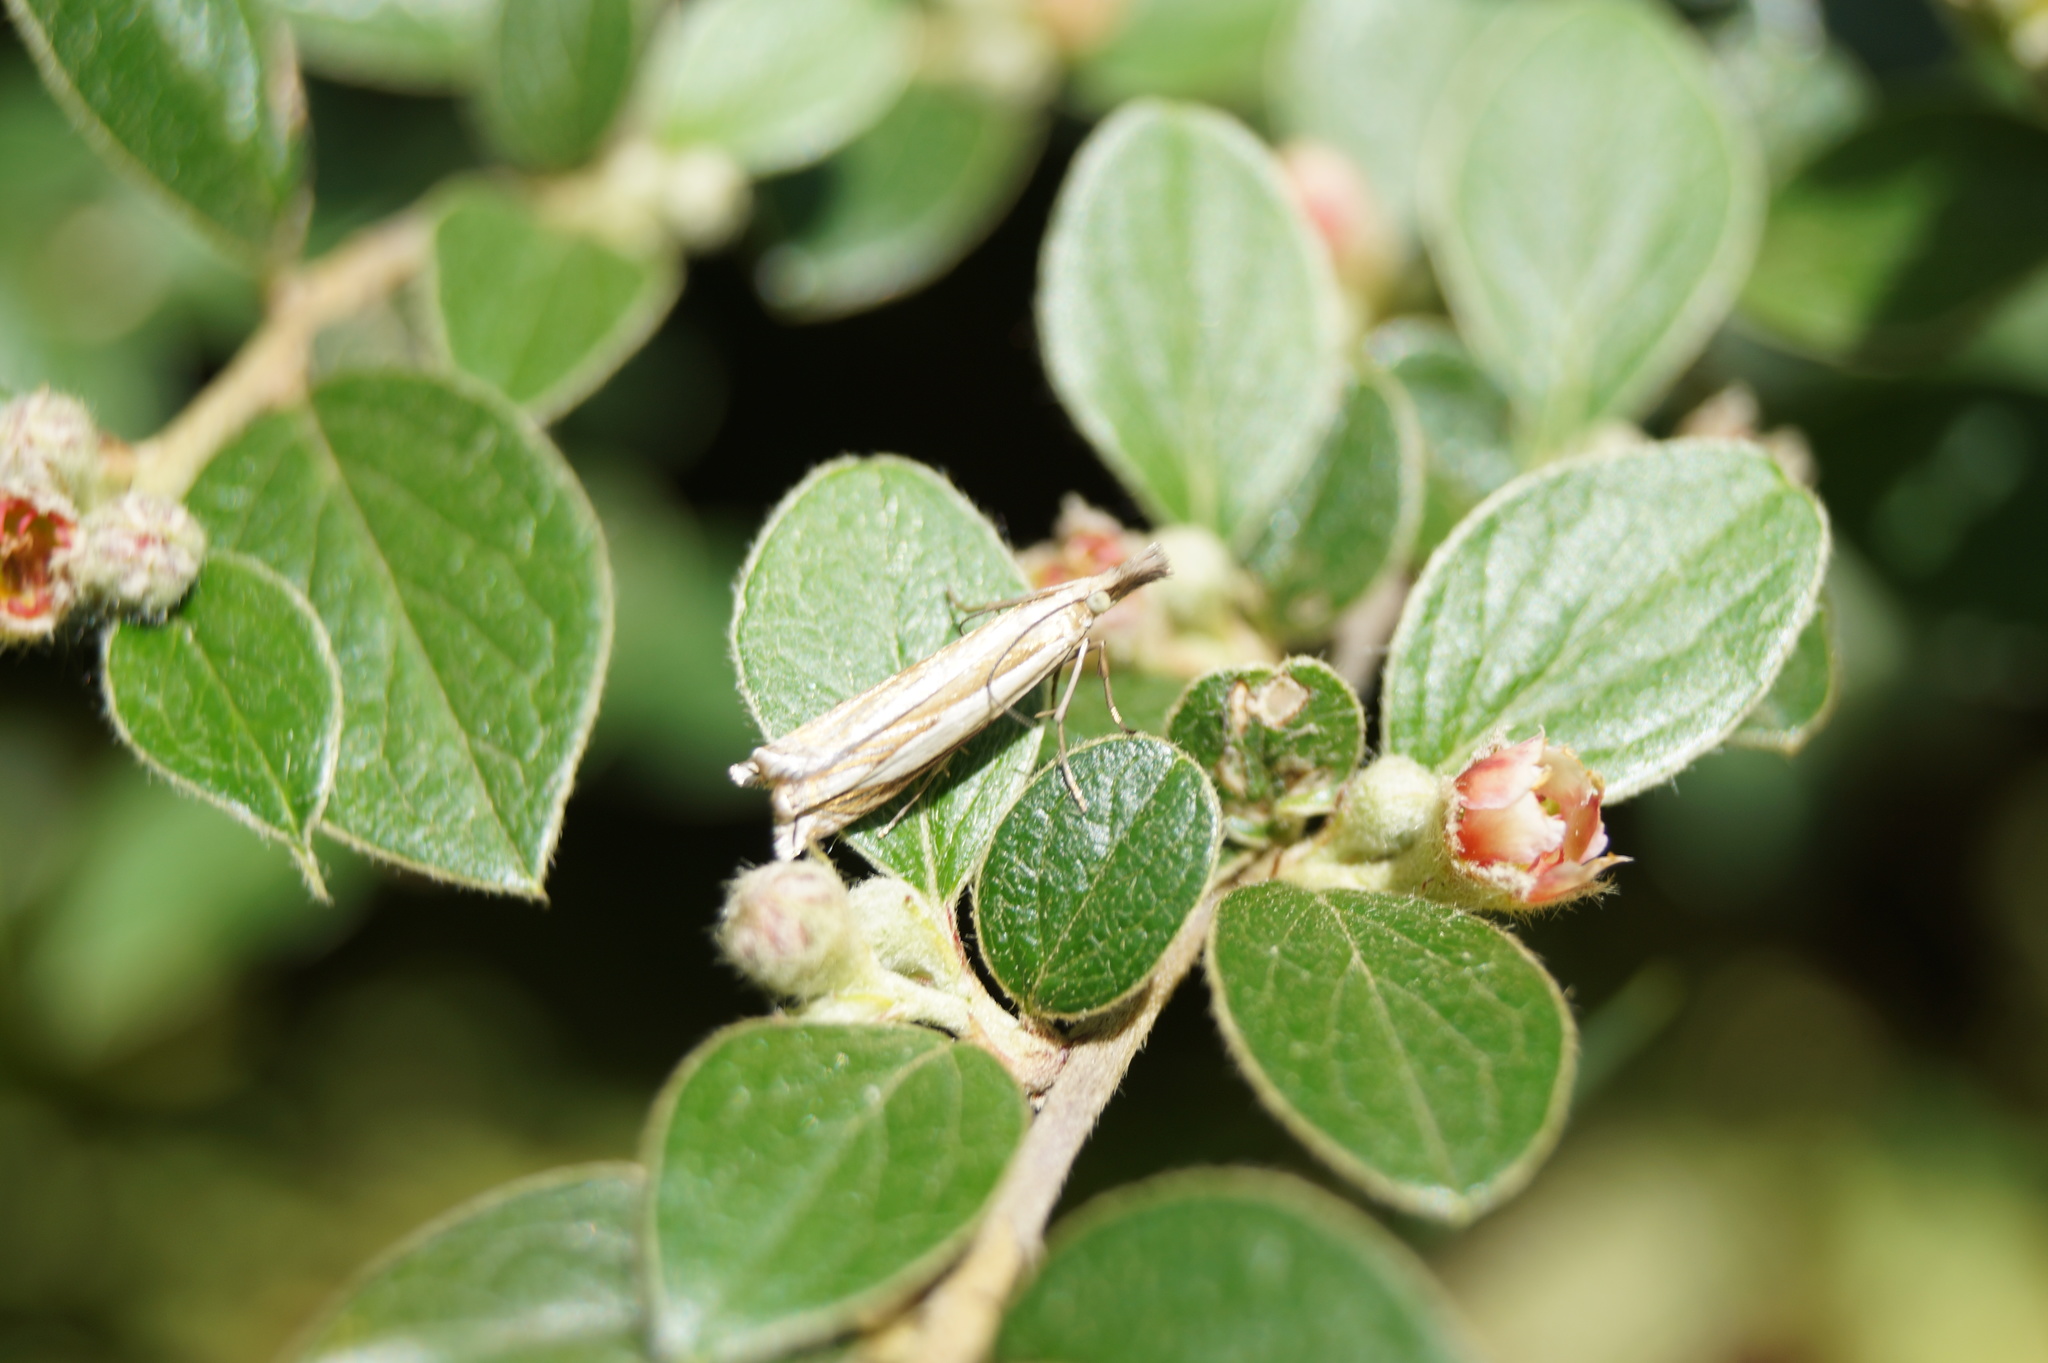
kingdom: Animalia
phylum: Arthropoda
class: Insecta
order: Lepidoptera
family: Crambidae
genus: Crambus
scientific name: Crambus pascuella
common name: Inlaid grass-veneer
